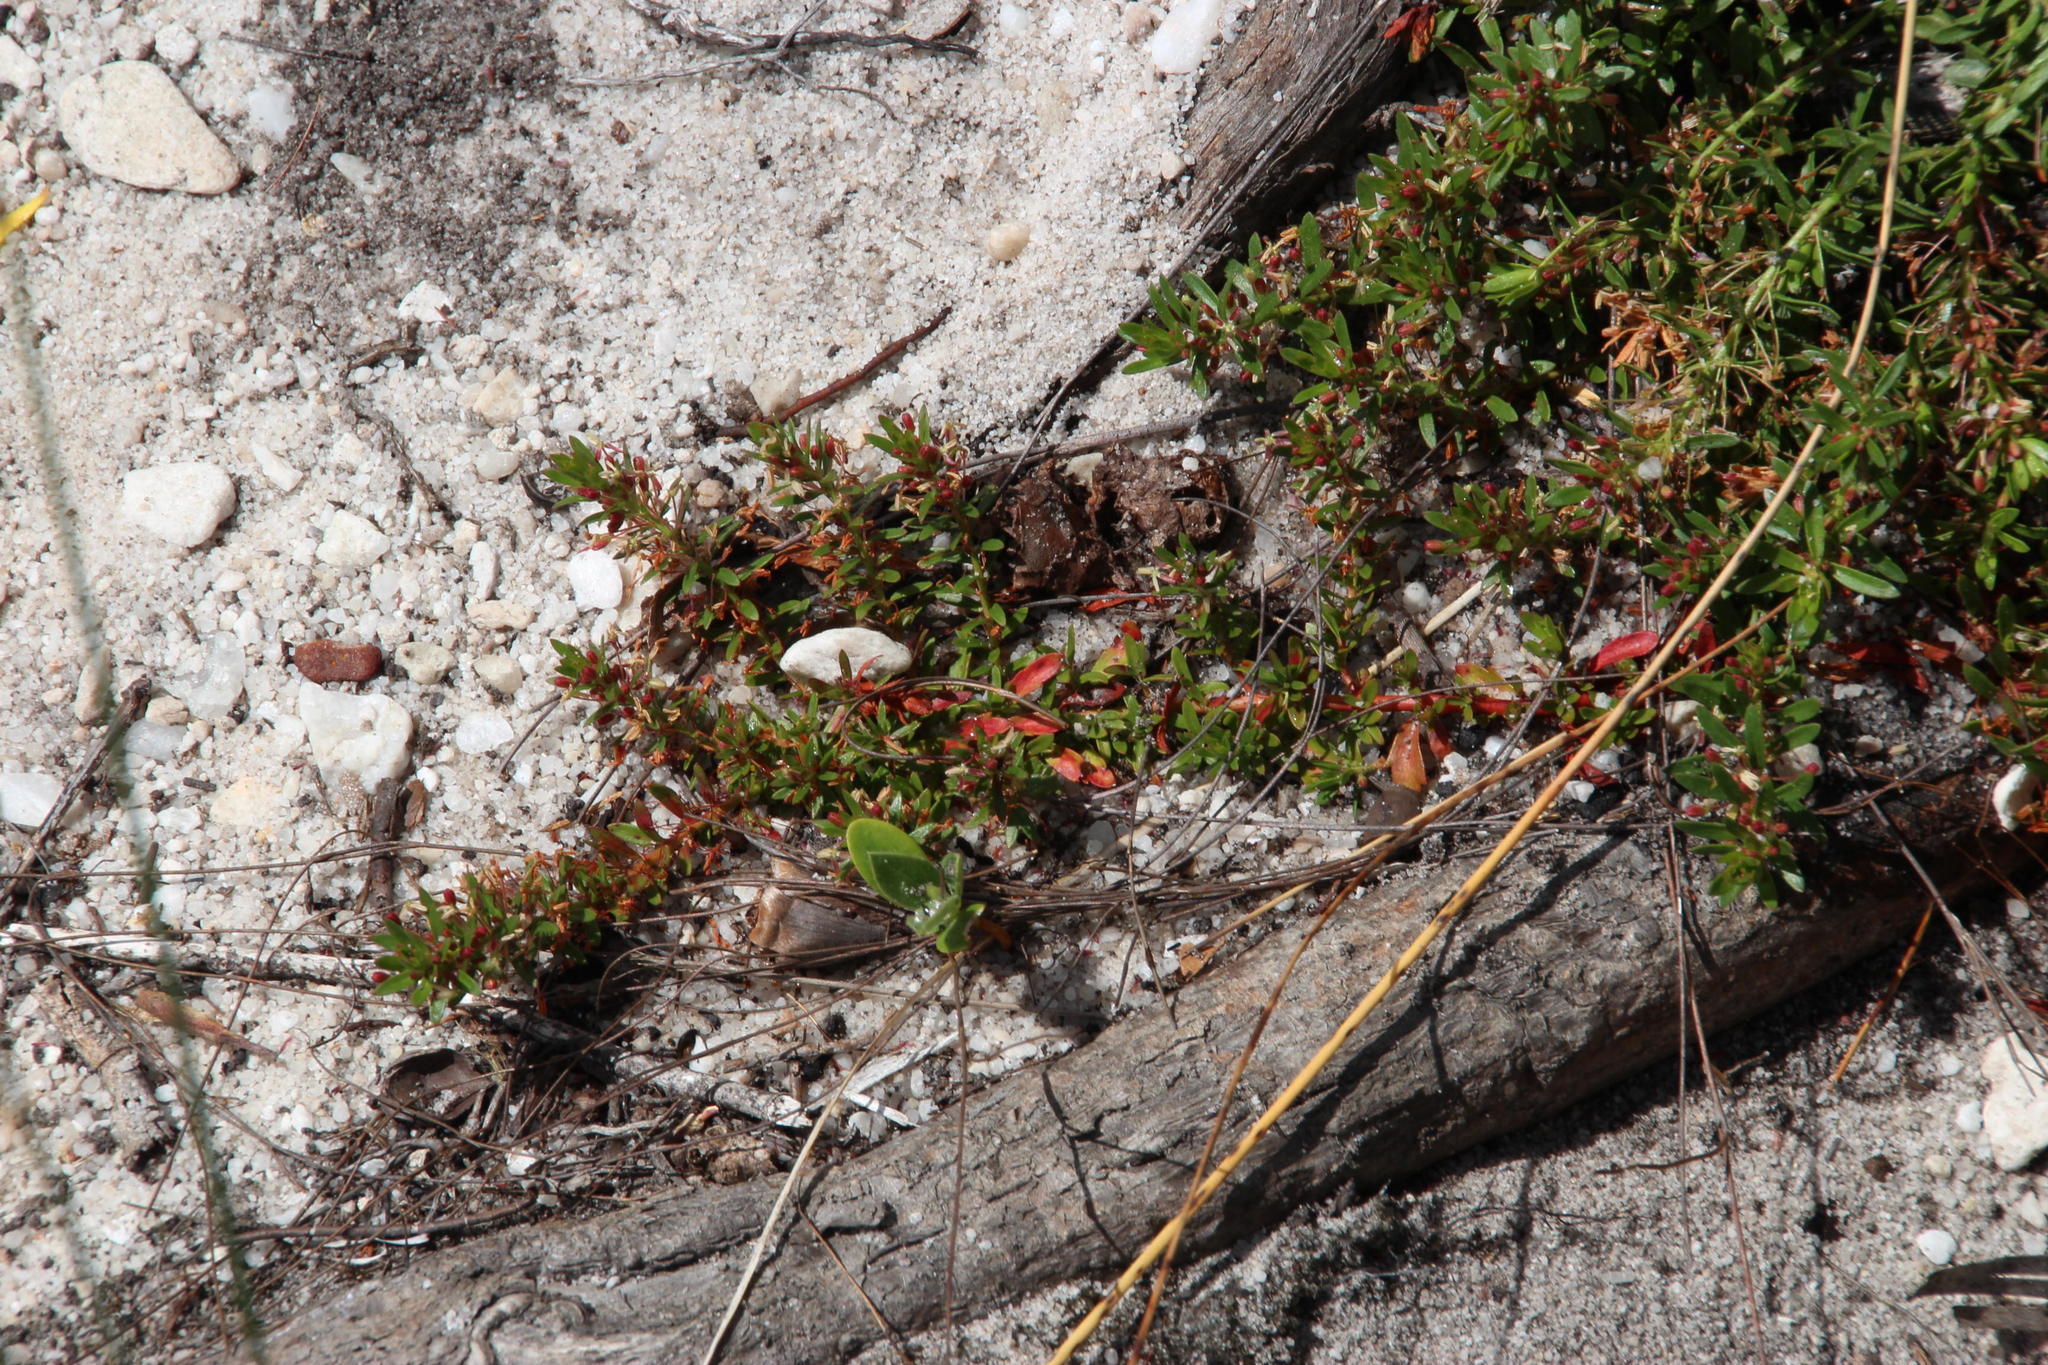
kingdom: Plantae
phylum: Tracheophyta
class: Magnoliopsida
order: Saxifragales
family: Haloragaceae
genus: Laurembergia
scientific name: Laurembergia repens
